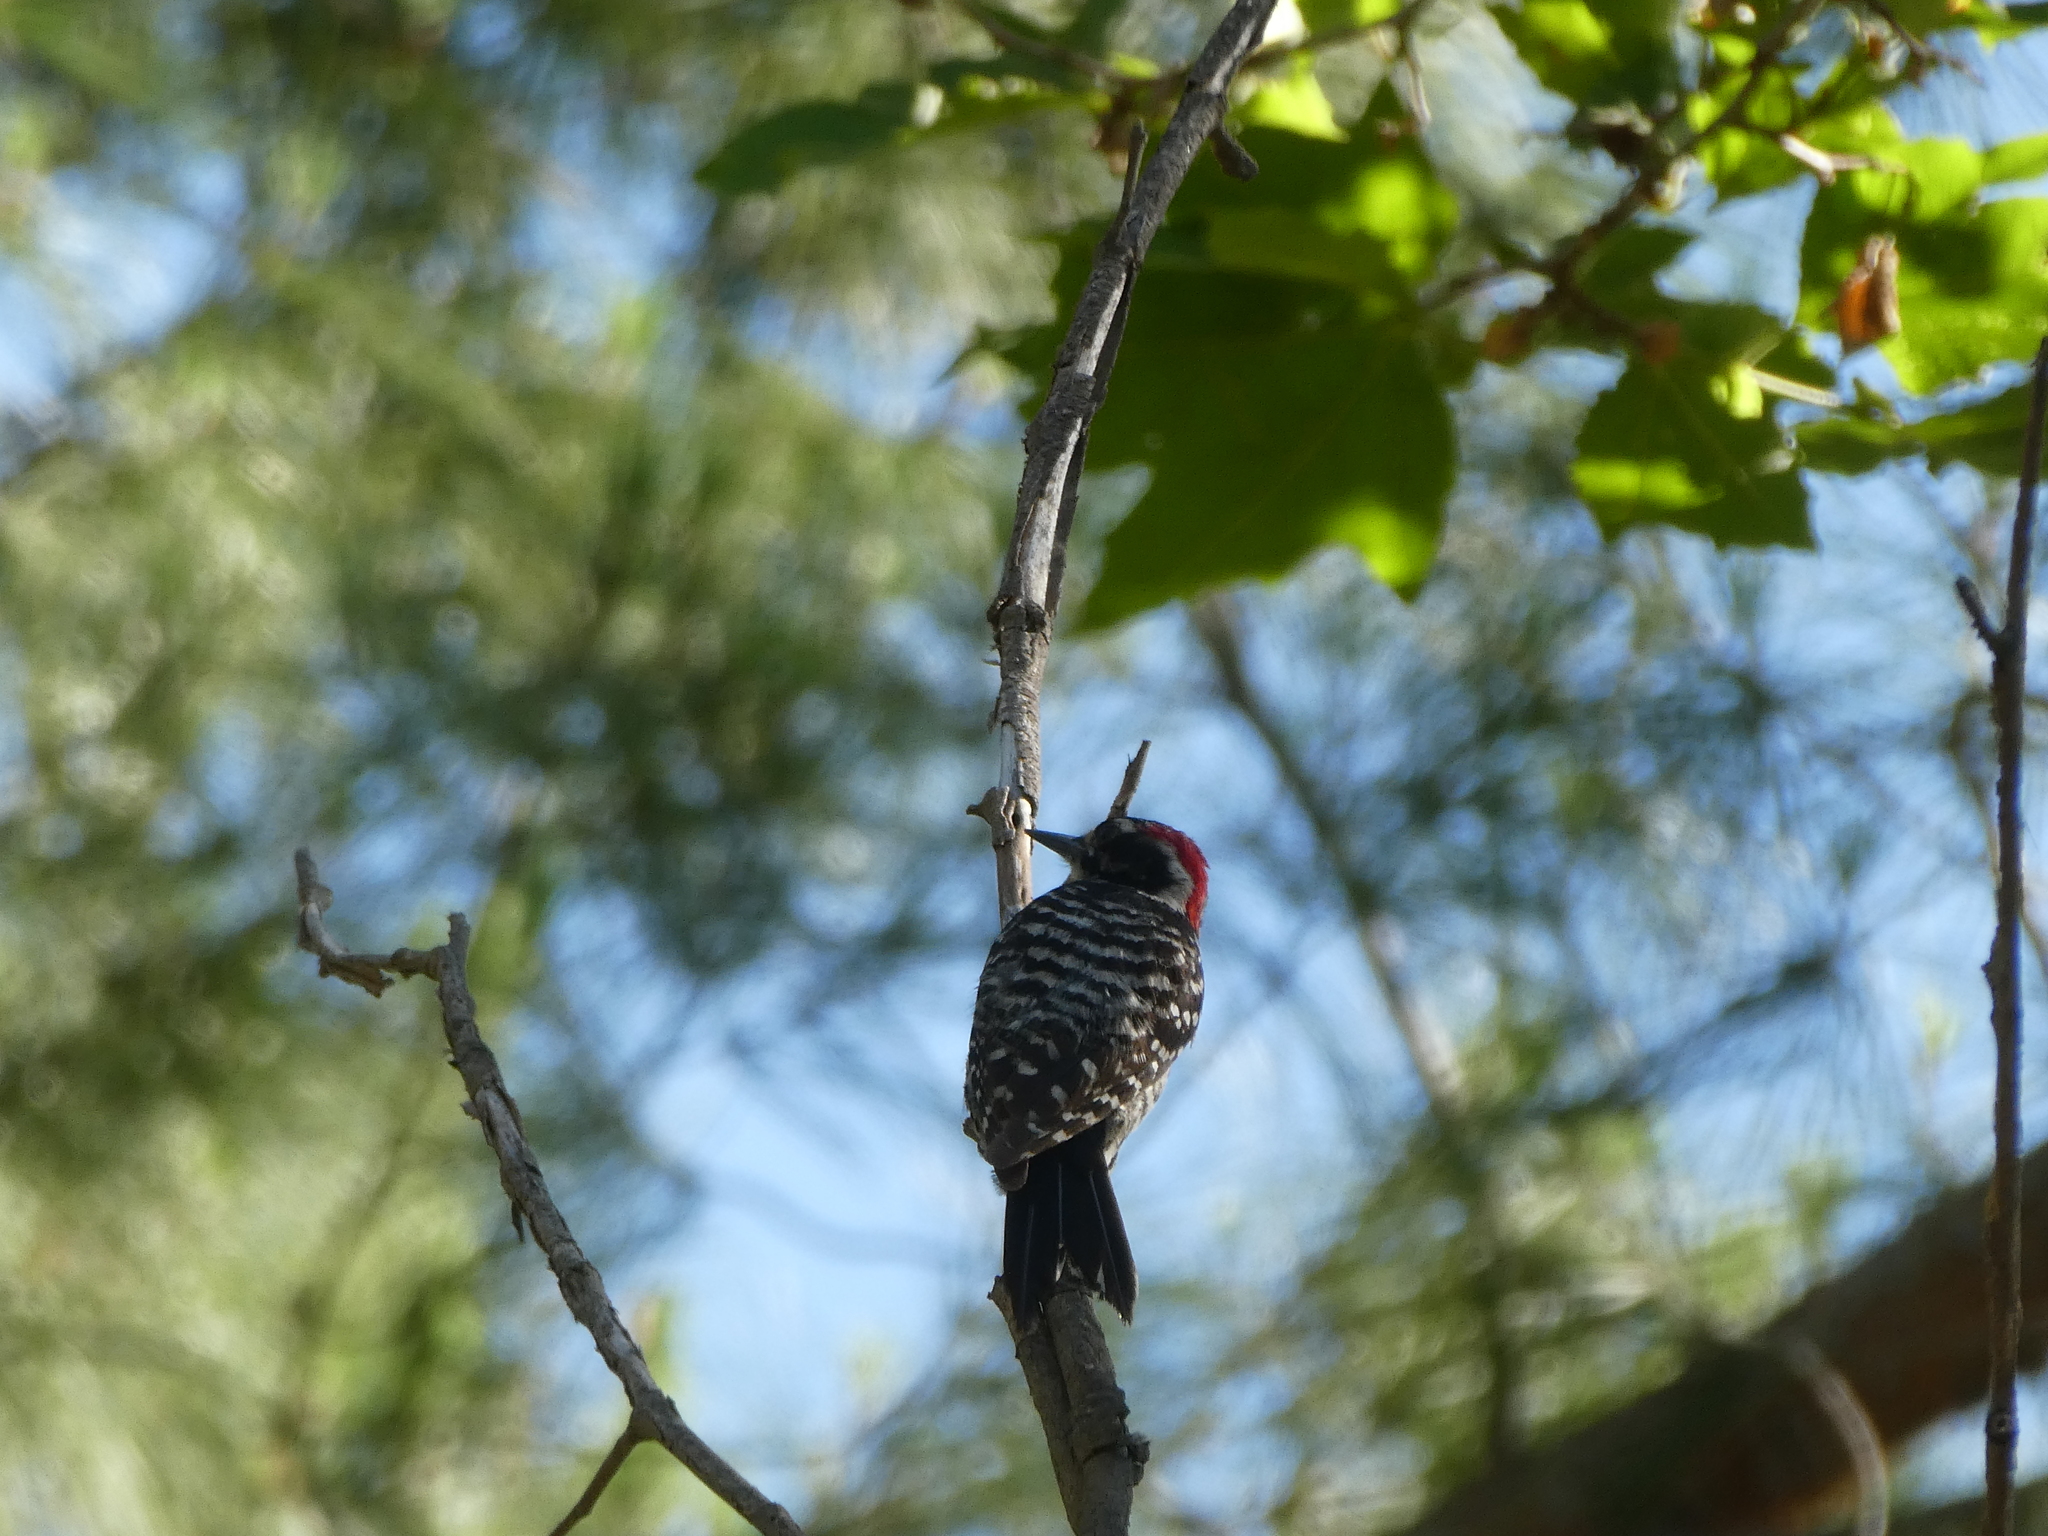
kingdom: Animalia
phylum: Chordata
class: Aves
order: Piciformes
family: Picidae
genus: Dryobates
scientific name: Dryobates nuttallii
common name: Nuttall's woodpecker
